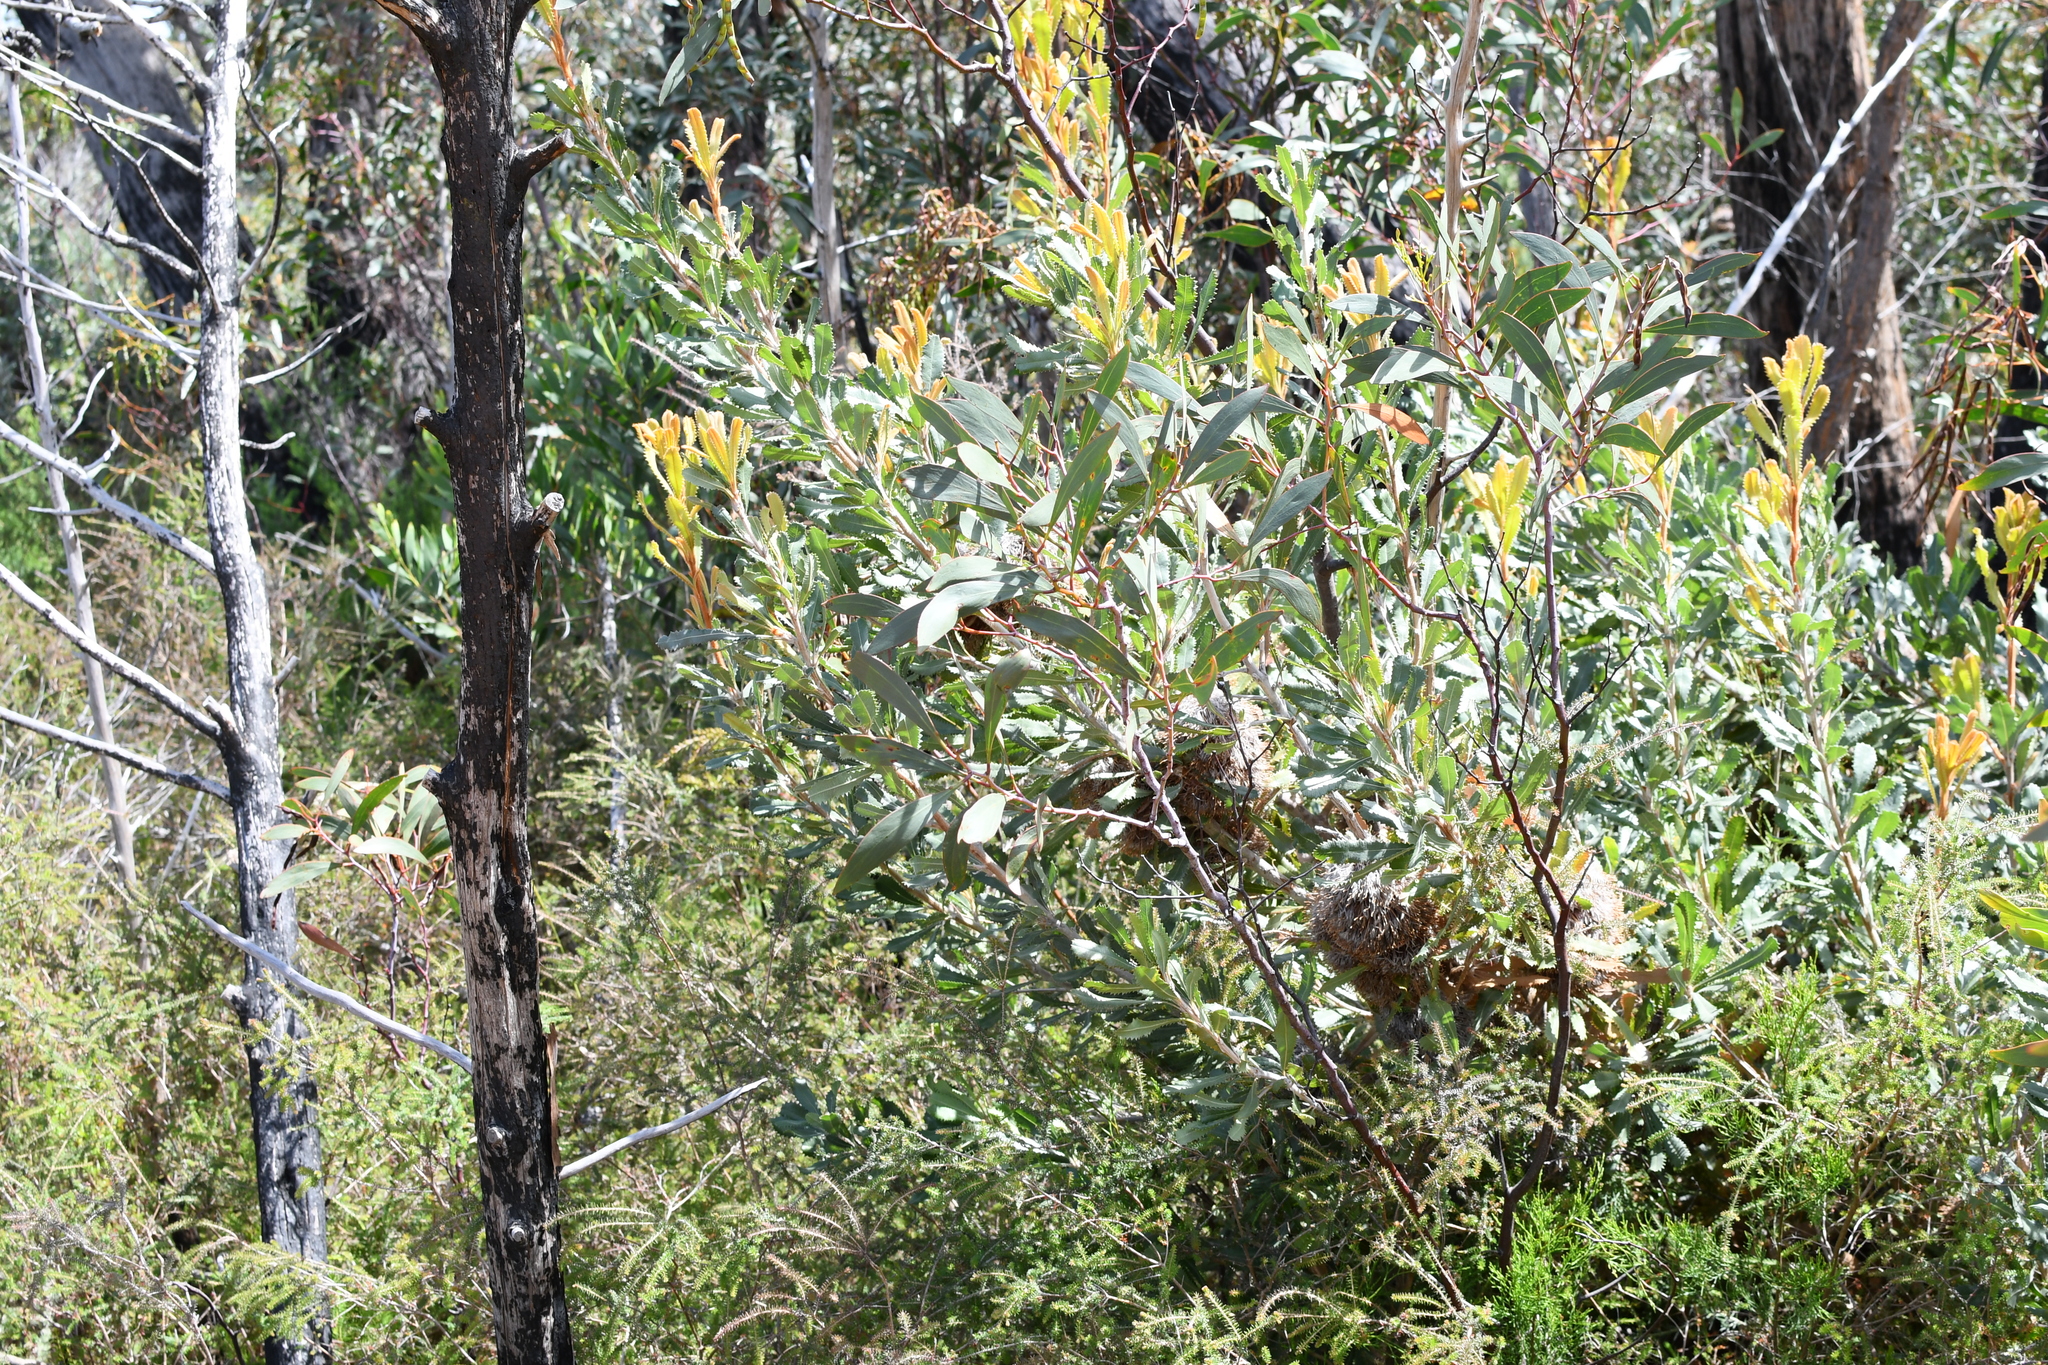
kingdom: Plantae
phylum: Tracheophyta
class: Magnoliopsida
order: Proteales
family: Proteaceae
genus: Banksia
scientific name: Banksia ornata
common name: Desert banksia
